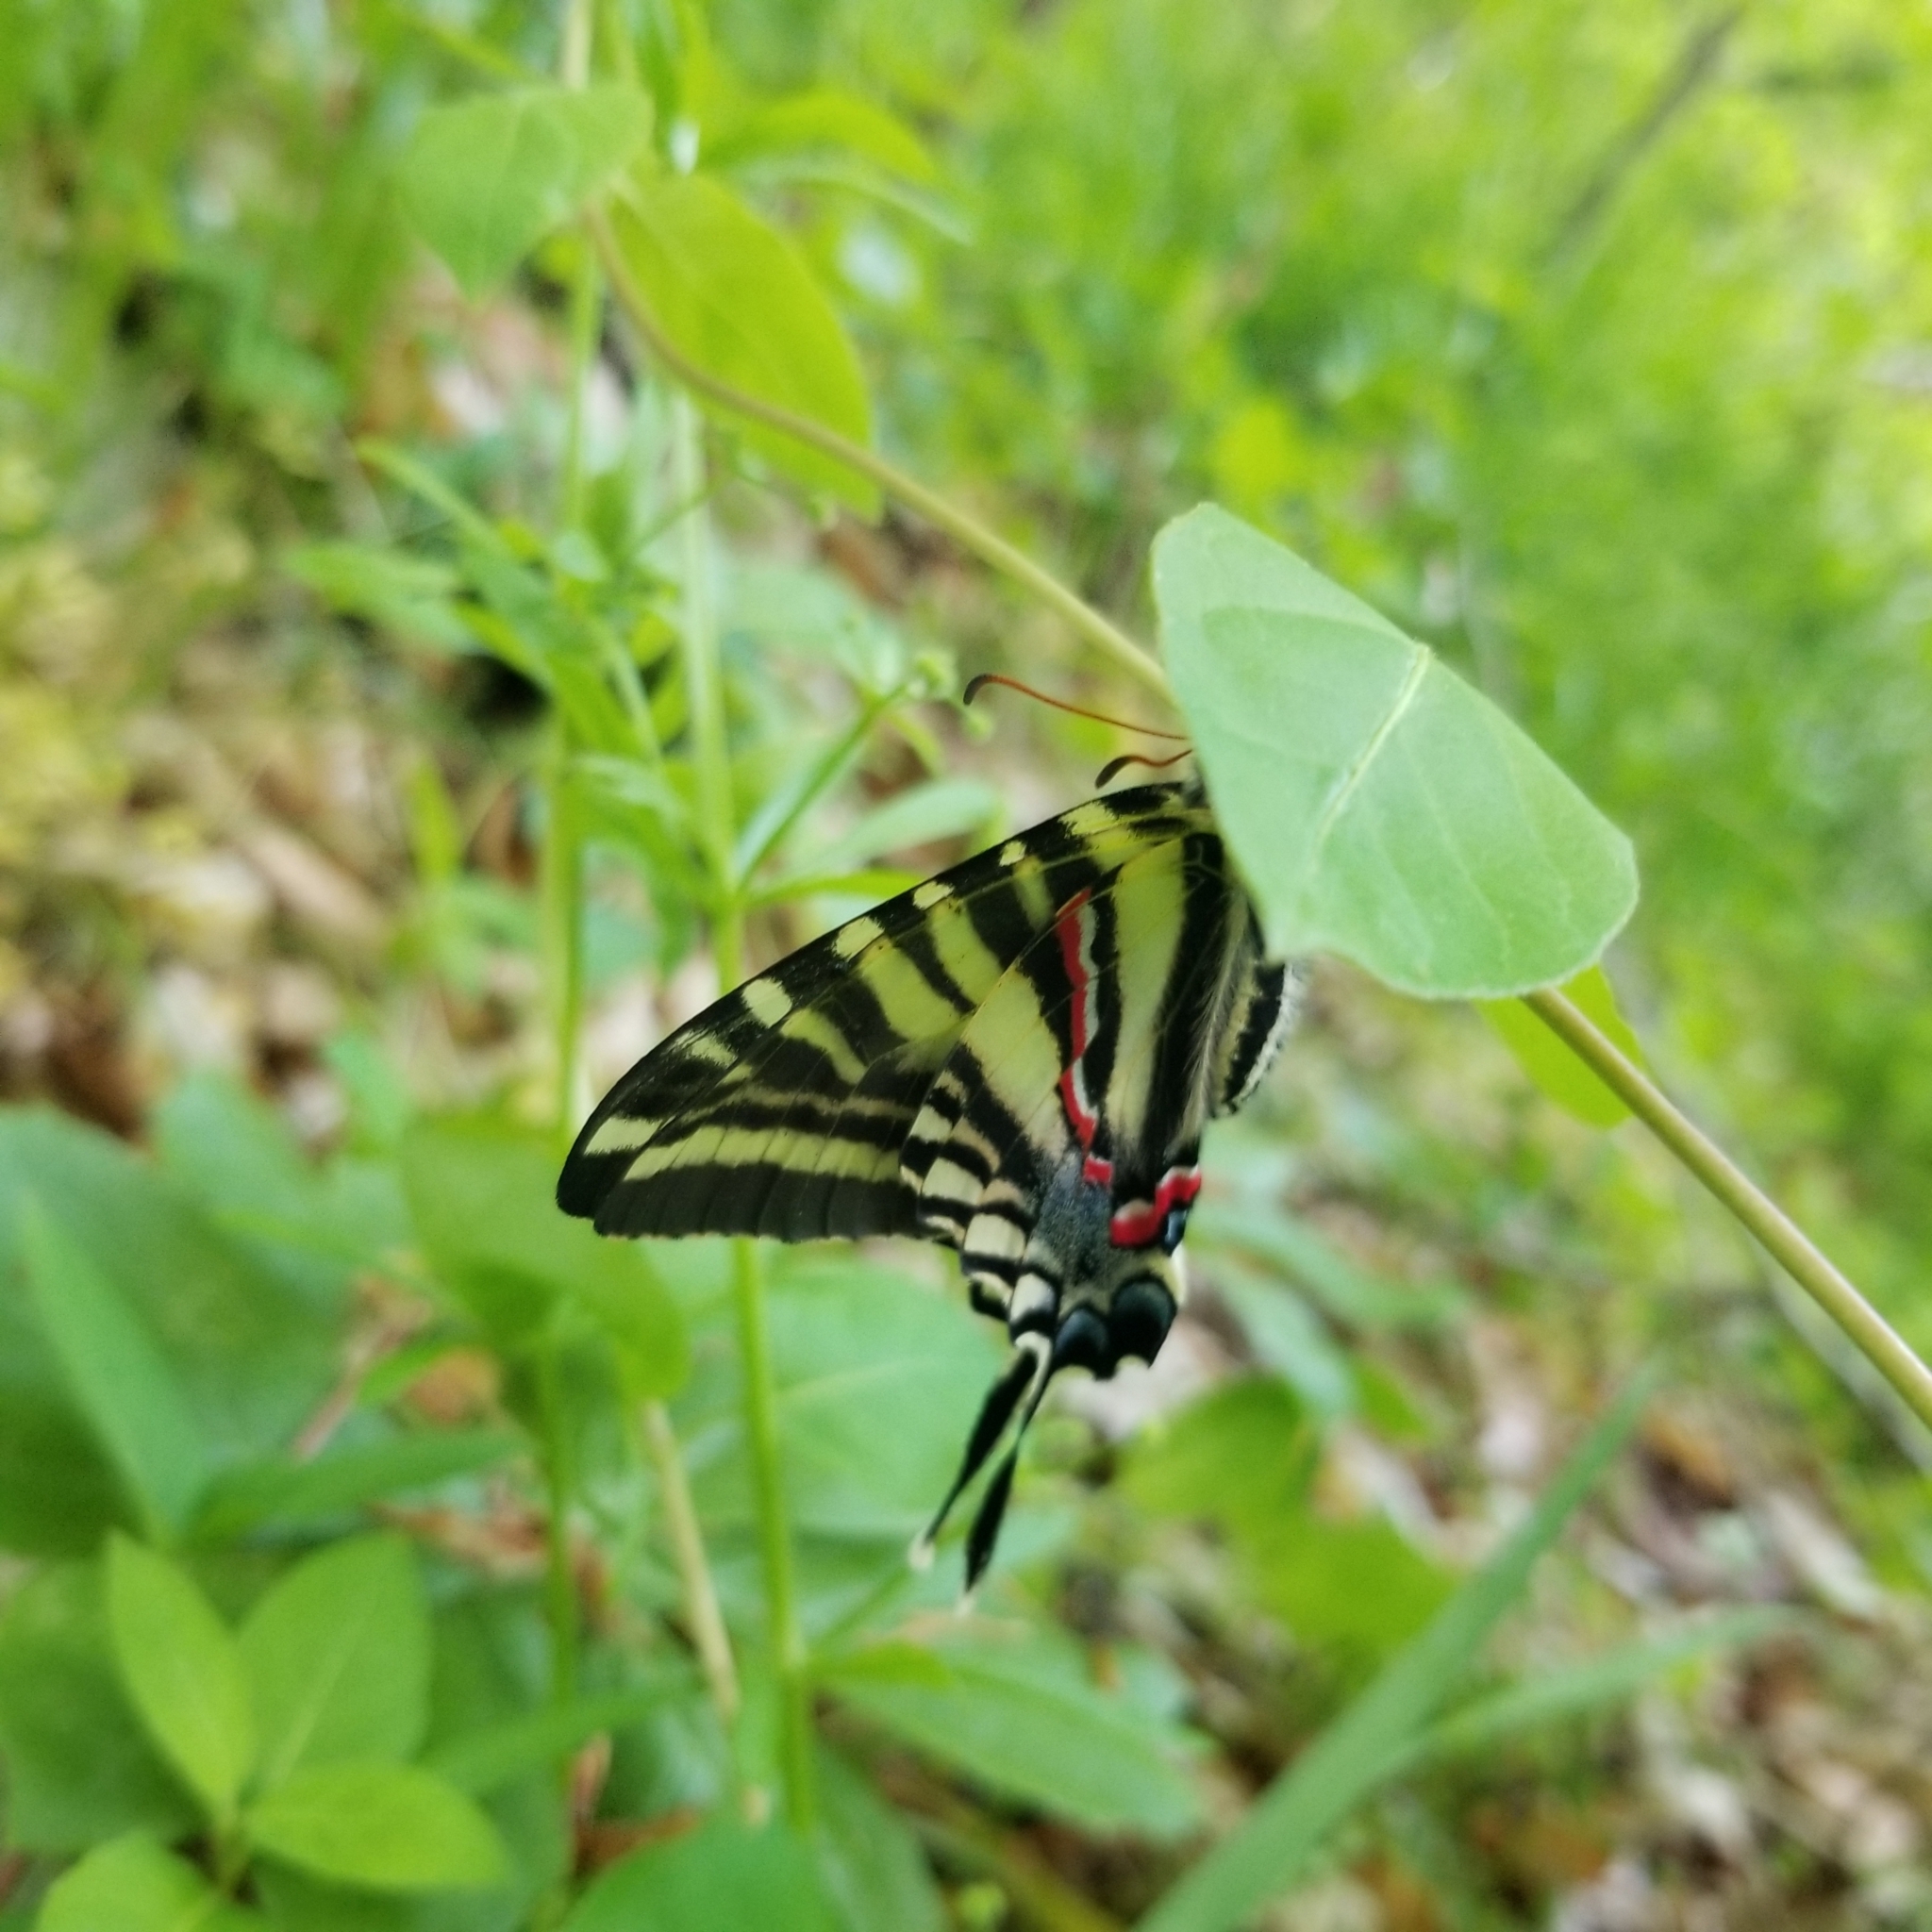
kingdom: Animalia
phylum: Arthropoda
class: Insecta
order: Lepidoptera
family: Papilionidae
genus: Protographium
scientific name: Protographium marcellus
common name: Zebra swallowtail
